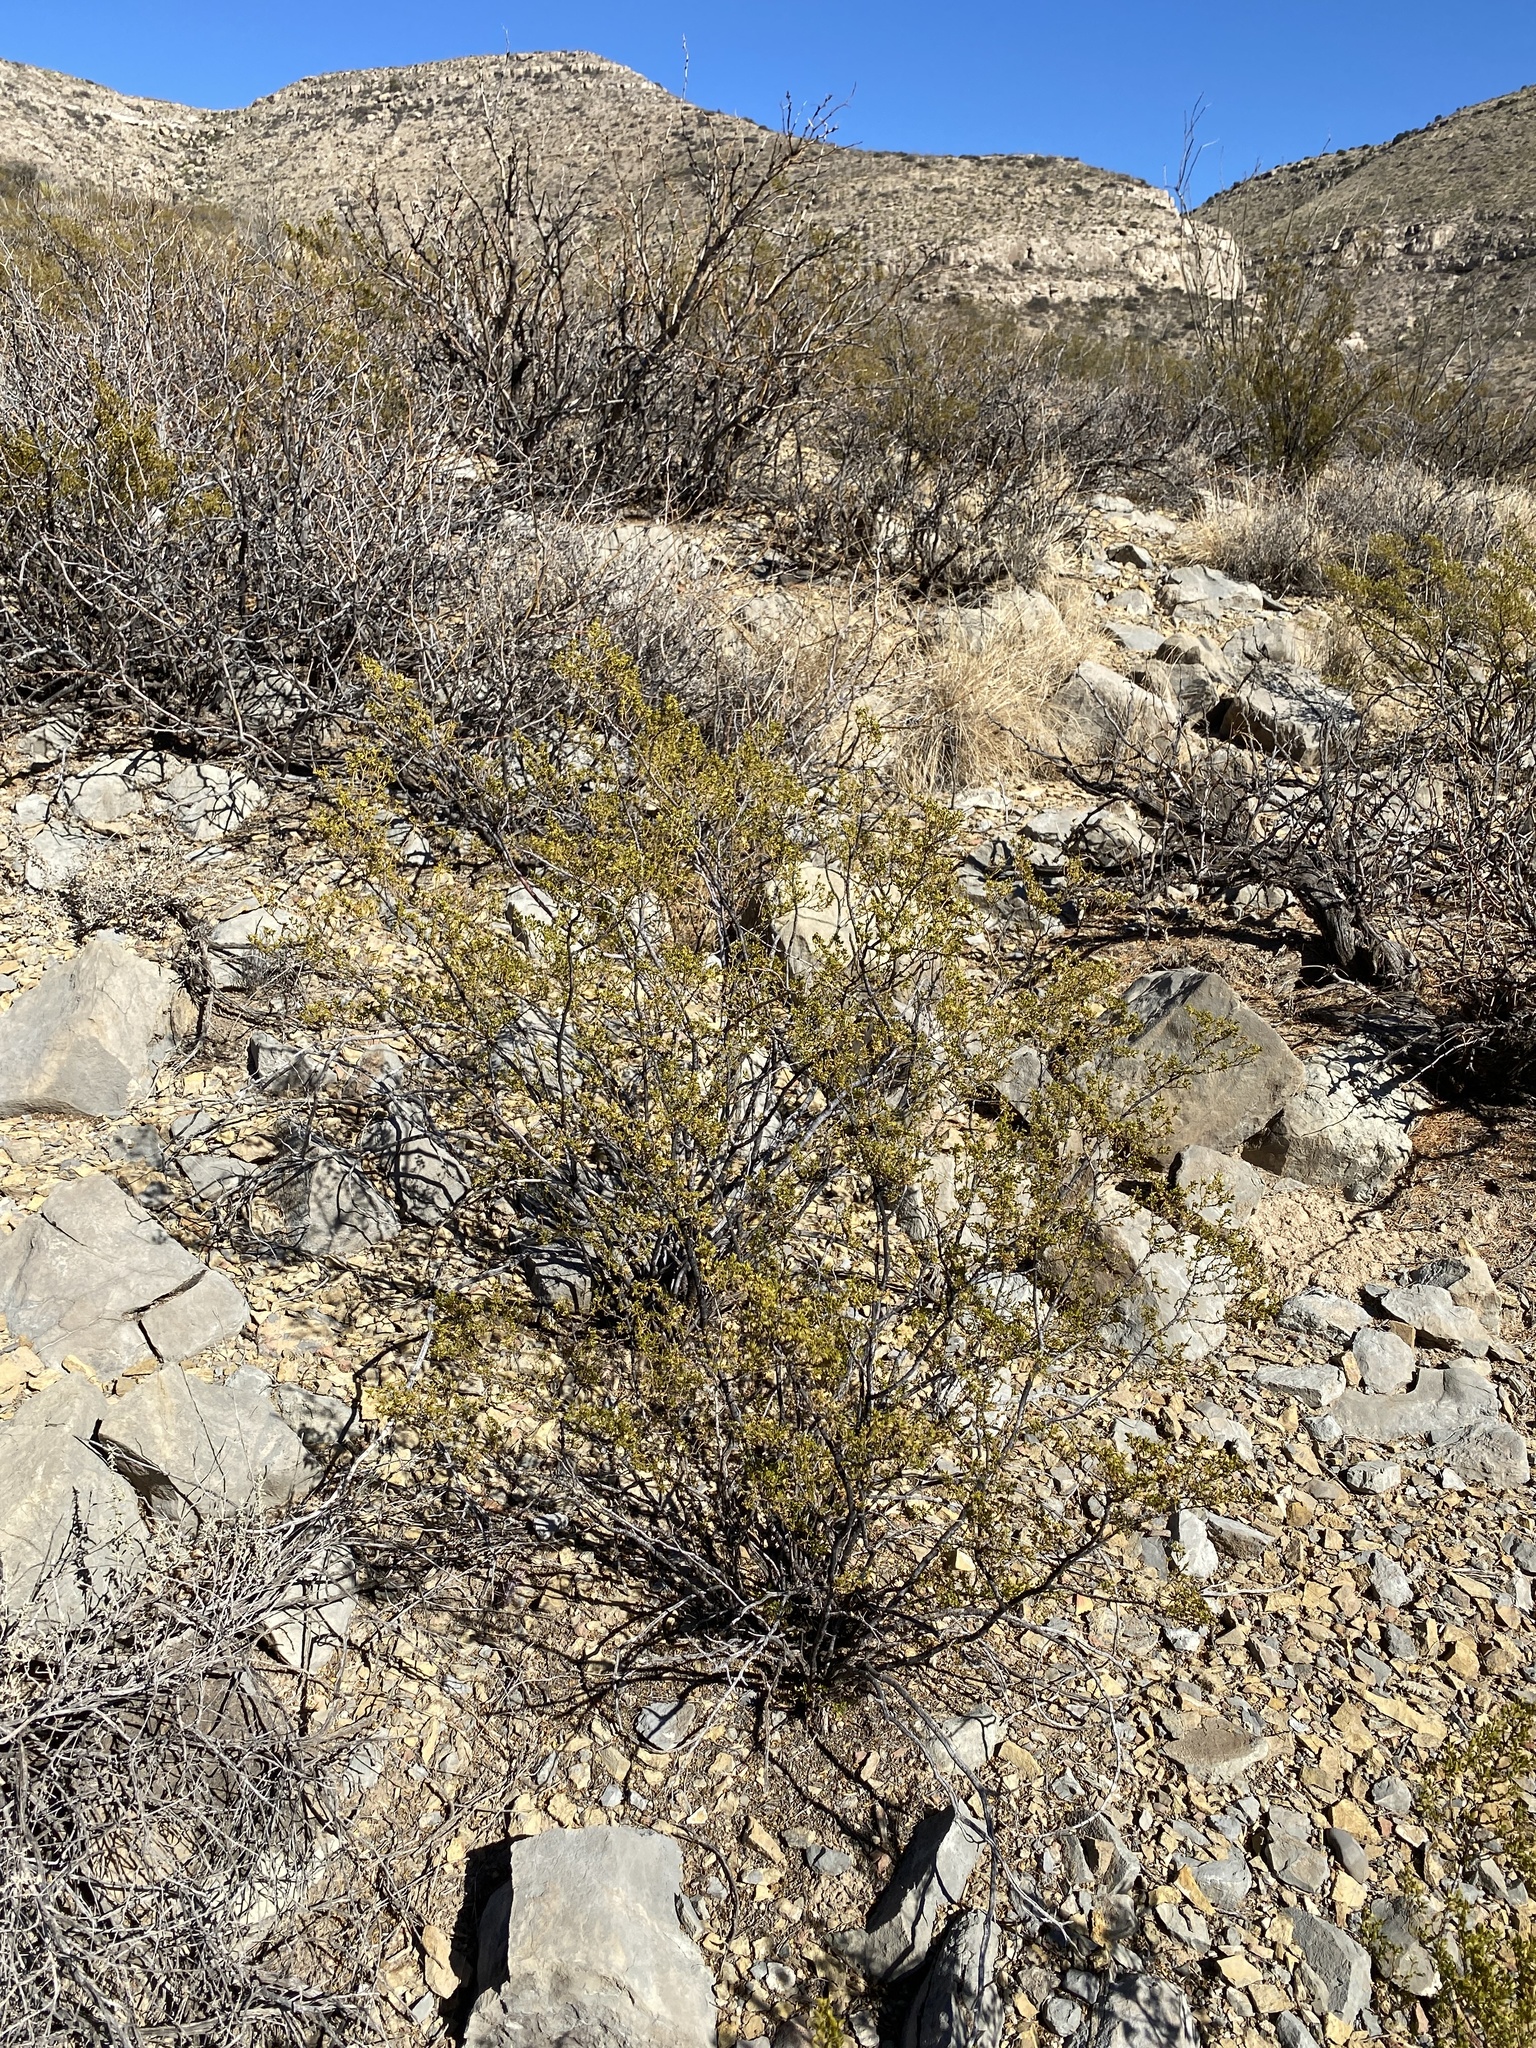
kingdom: Plantae
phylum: Tracheophyta
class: Magnoliopsida
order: Zygophyllales
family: Zygophyllaceae
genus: Larrea
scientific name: Larrea tridentata
